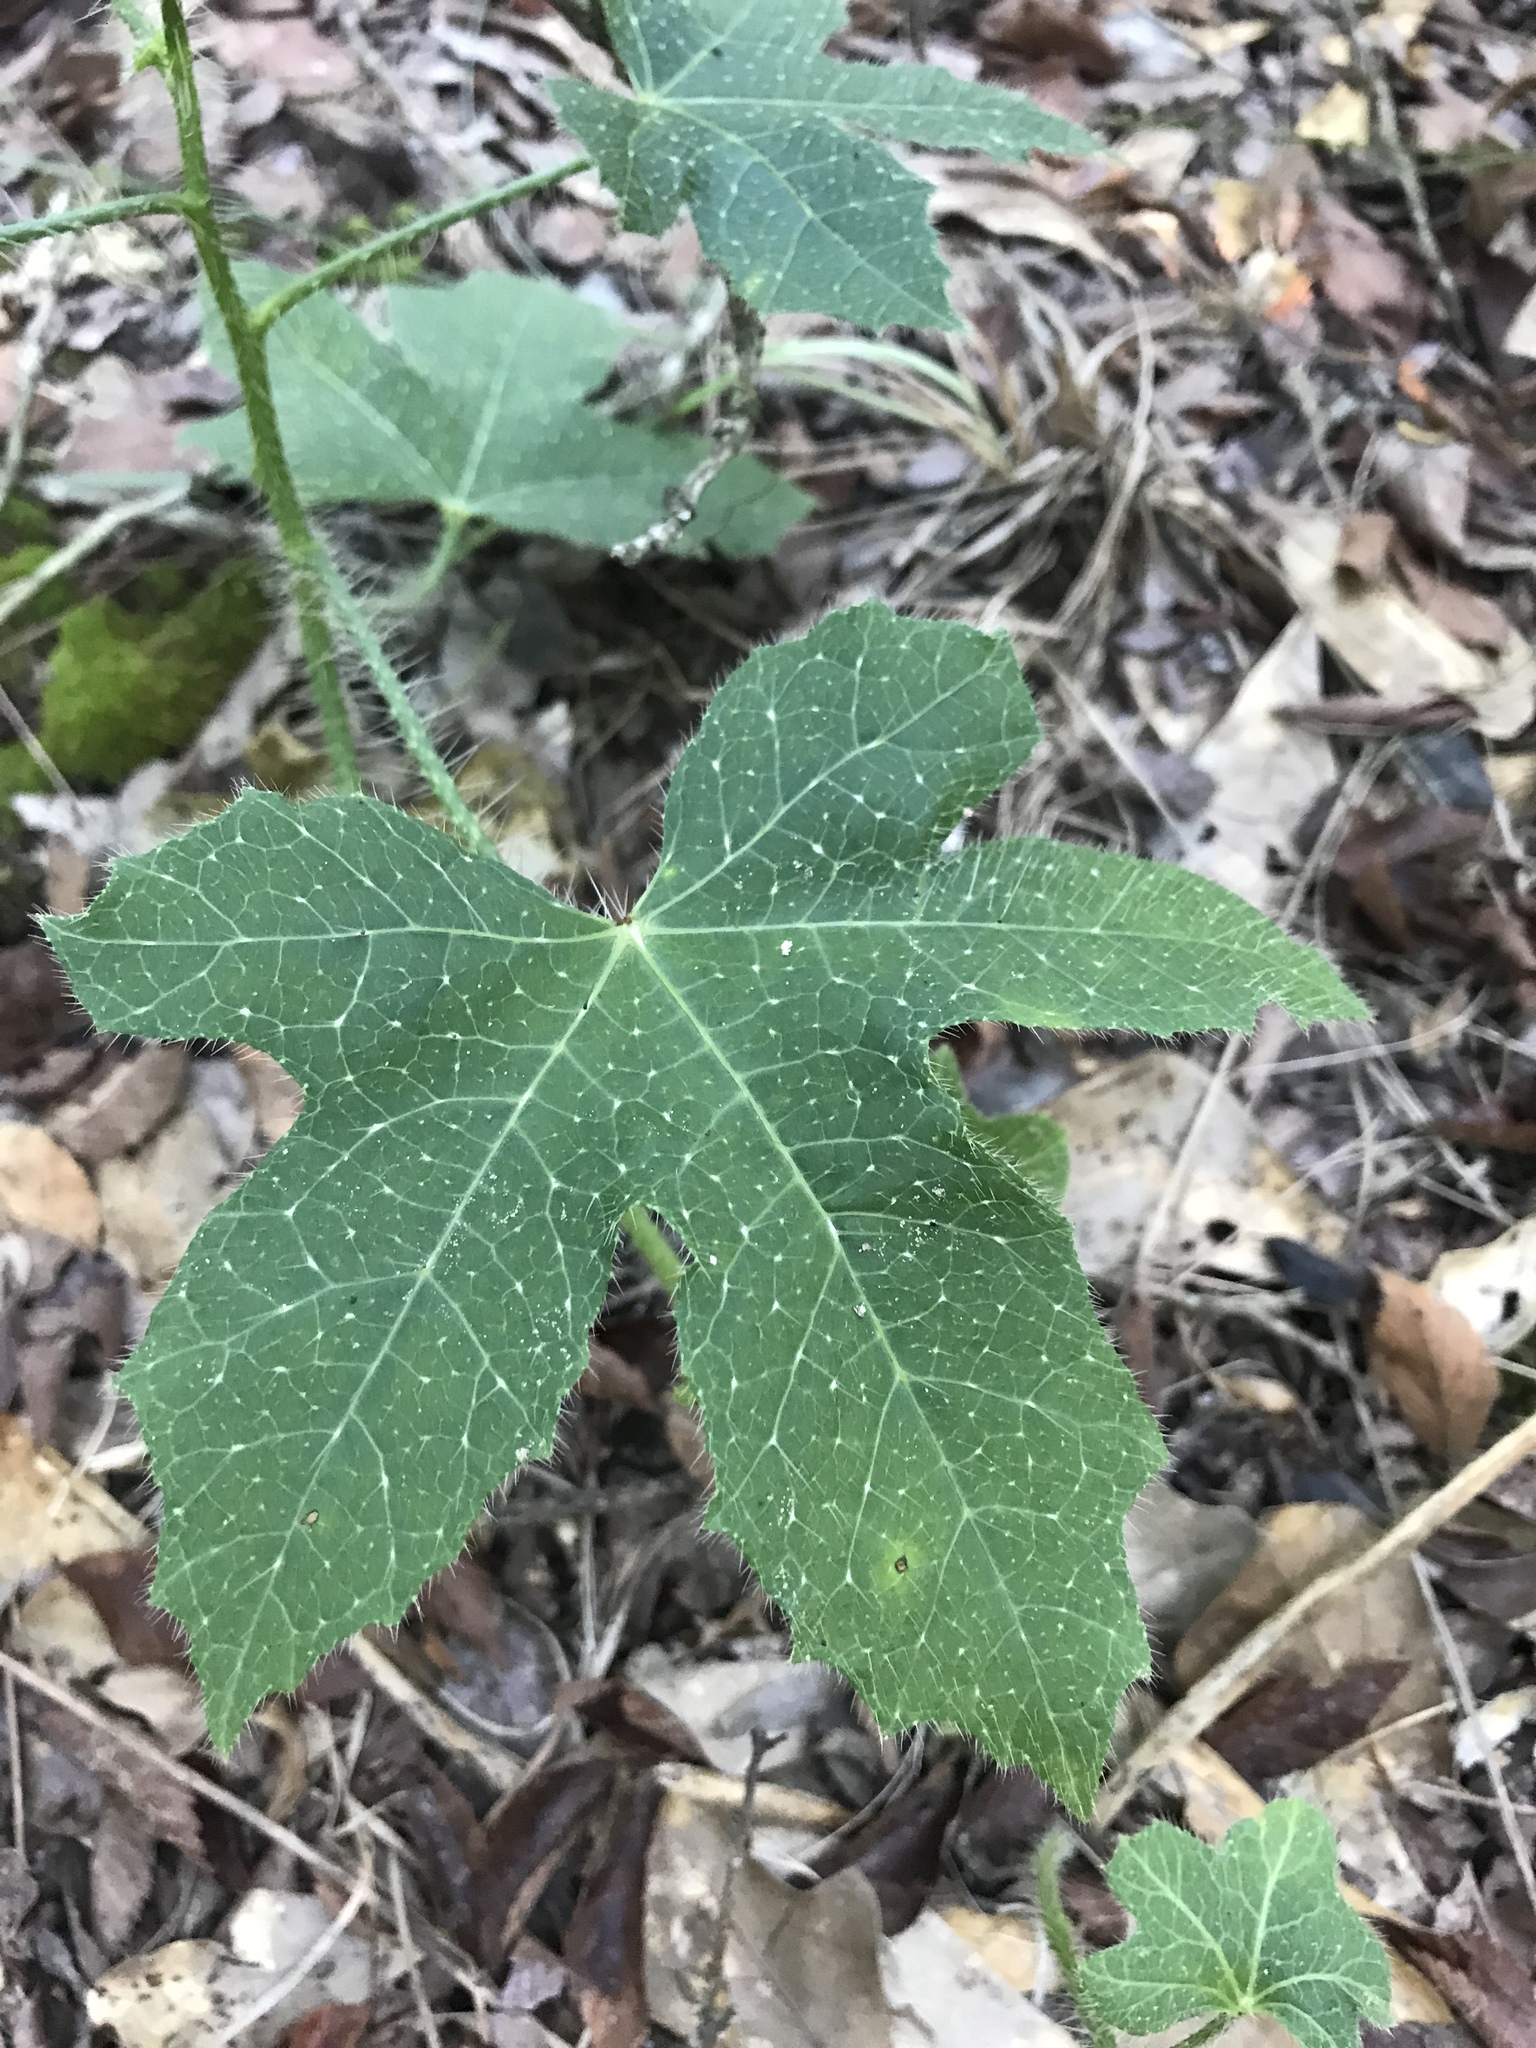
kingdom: Plantae
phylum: Tracheophyta
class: Magnoliopsida
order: Malpighiales
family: Euphorbiaceae
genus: Cnidoscolus
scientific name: Cnidoscolus texanus
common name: Texas bull-nettle
